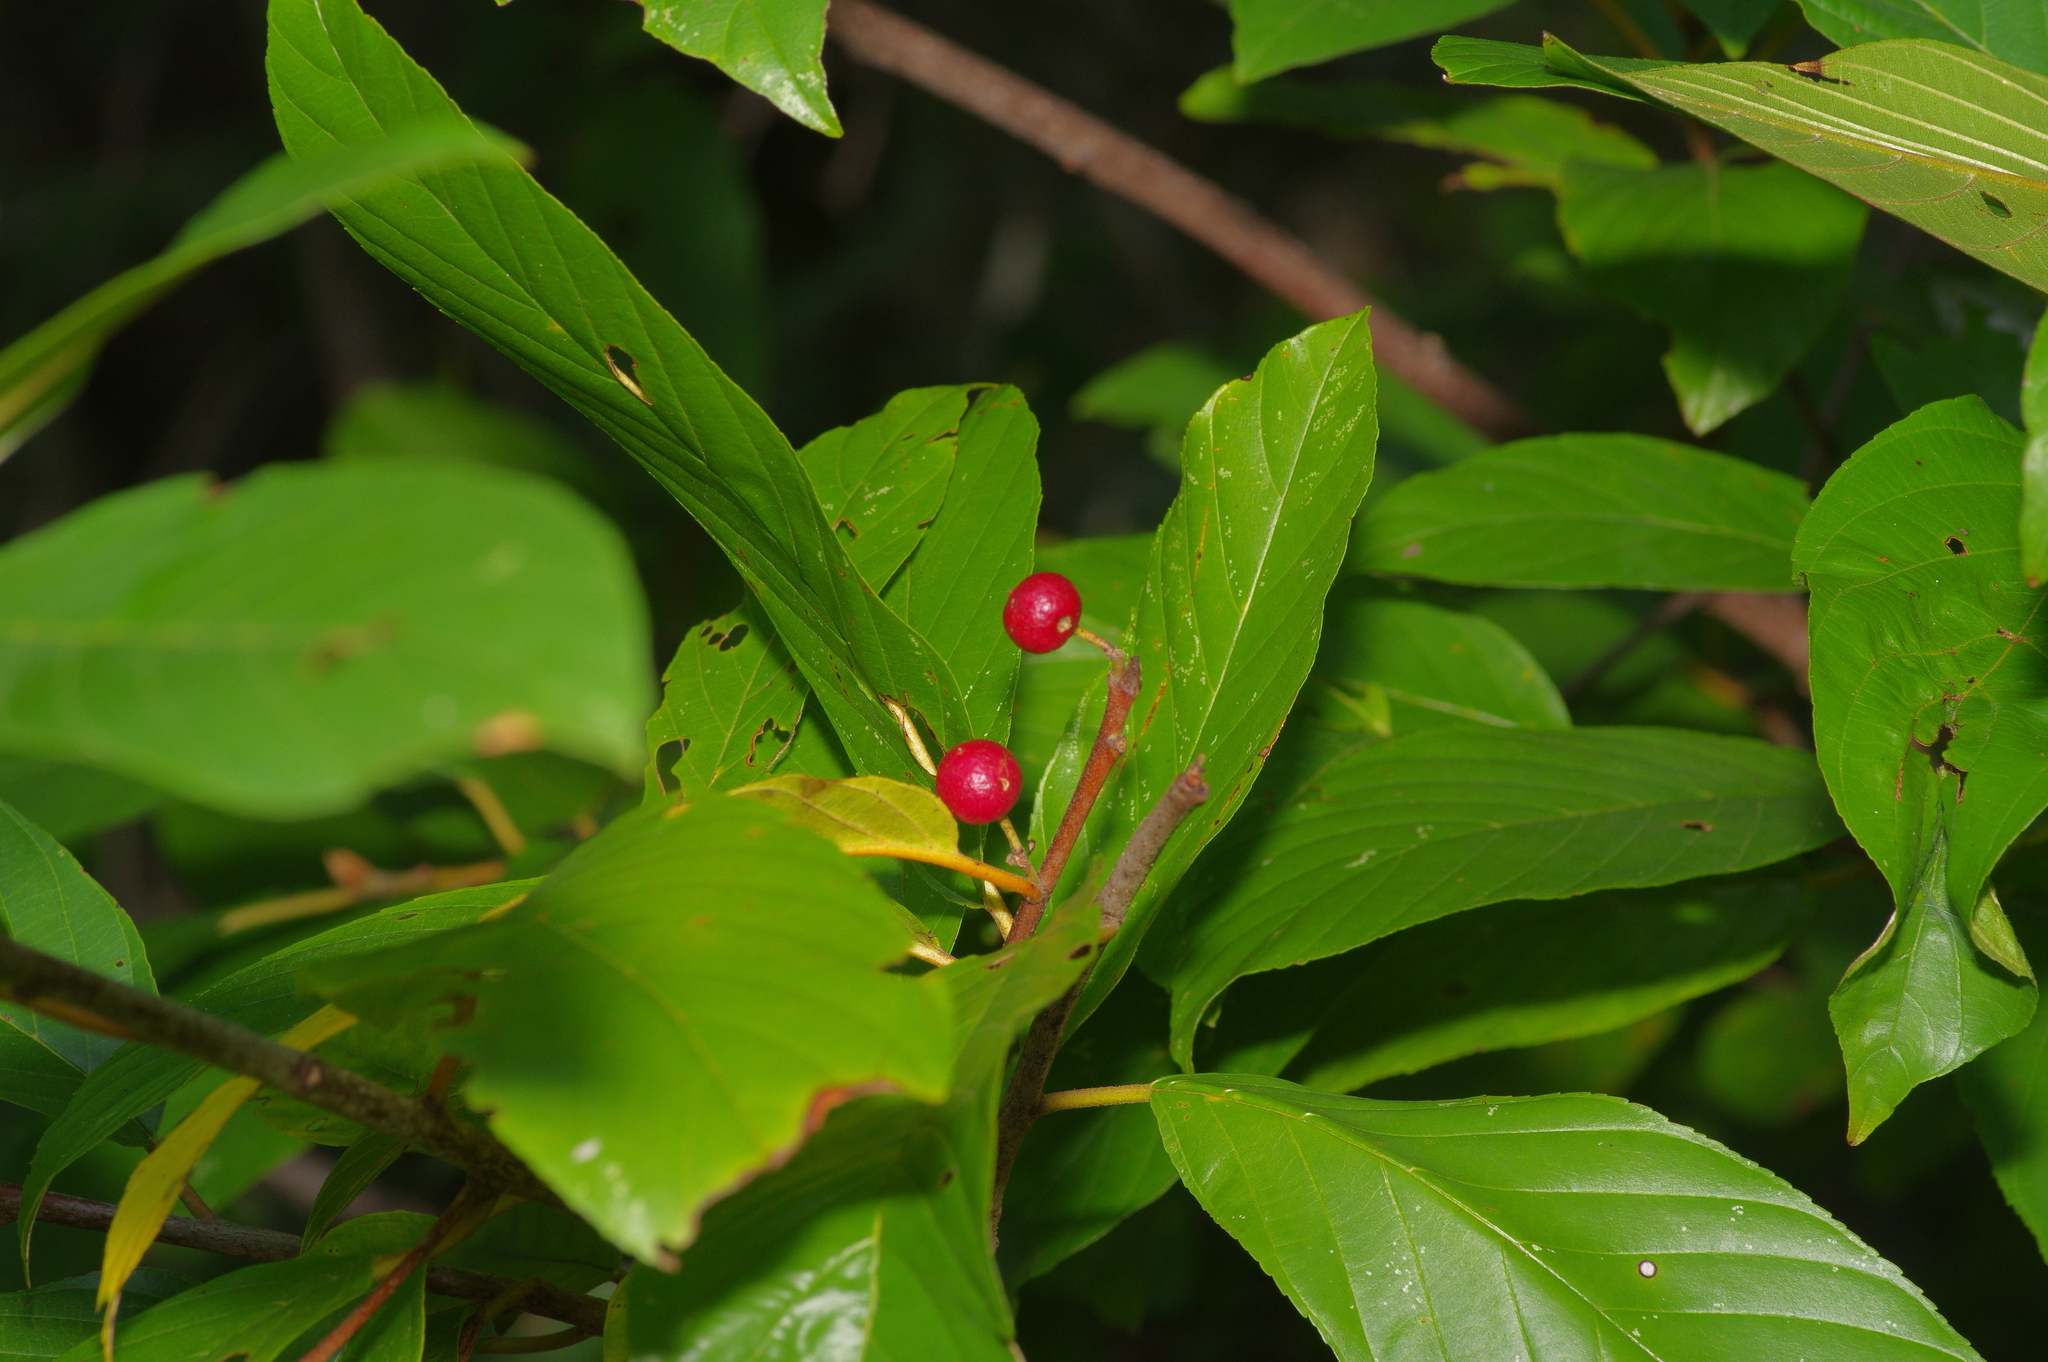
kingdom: Plantae
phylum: Tracheophyta
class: Magnoliopsida
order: Rosales
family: Rhamnaceae
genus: Frangula
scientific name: Frangula caroliniana
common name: Carolina buckthorn
